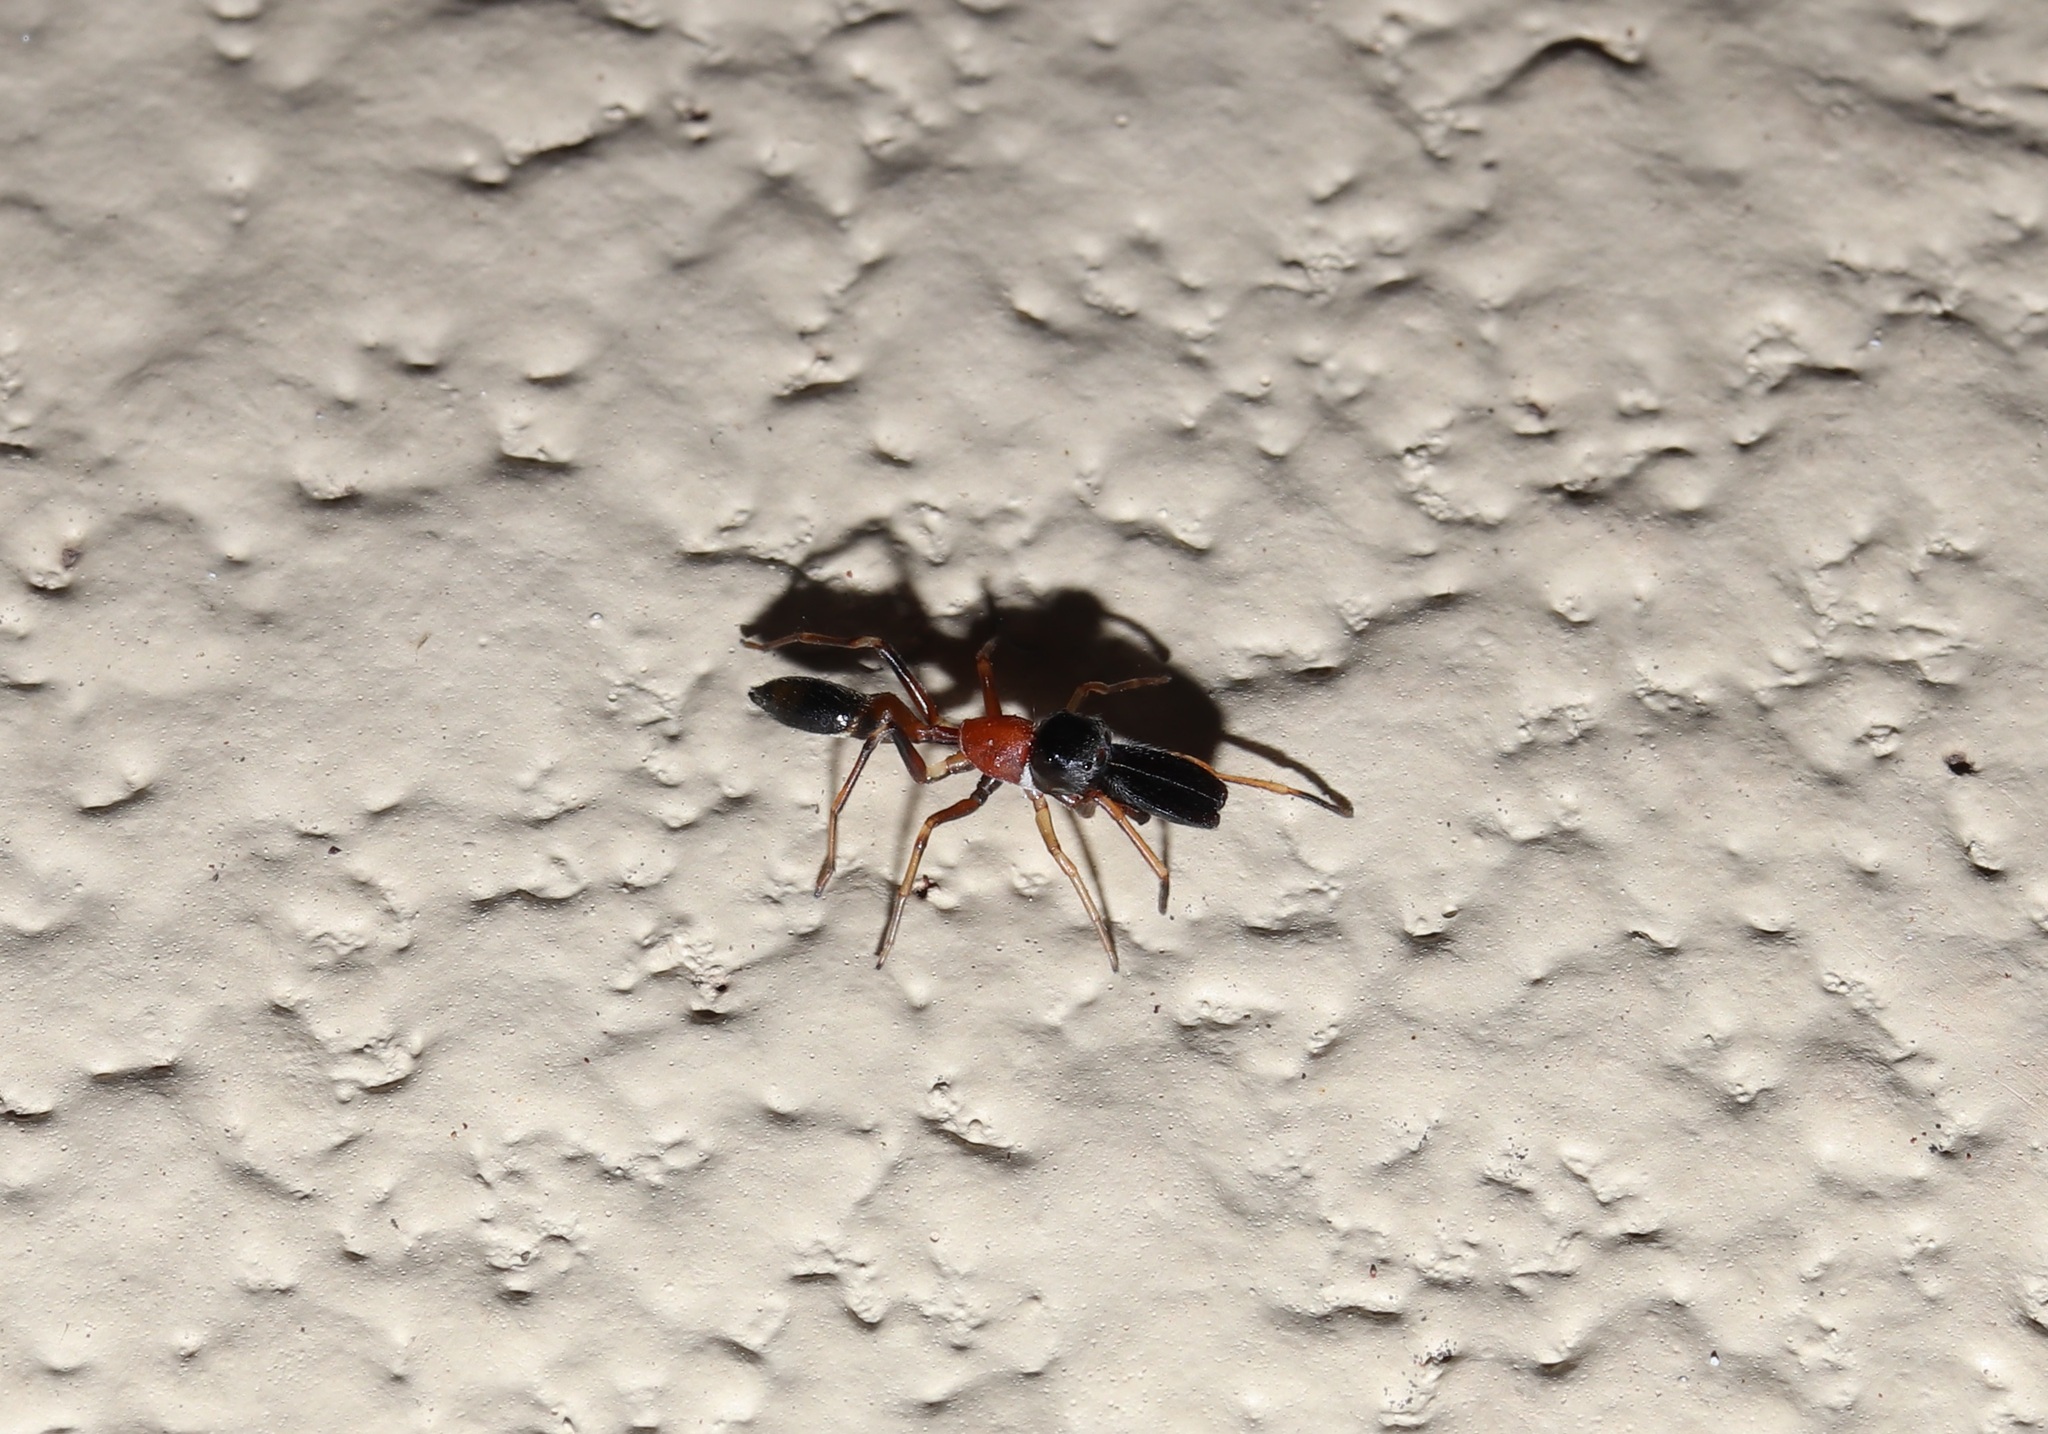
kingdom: Animalia
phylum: Arthropoda
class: Arachnida
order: Araneae
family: Salticidae
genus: Myrmarachne
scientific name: Myrmarachne elongata
